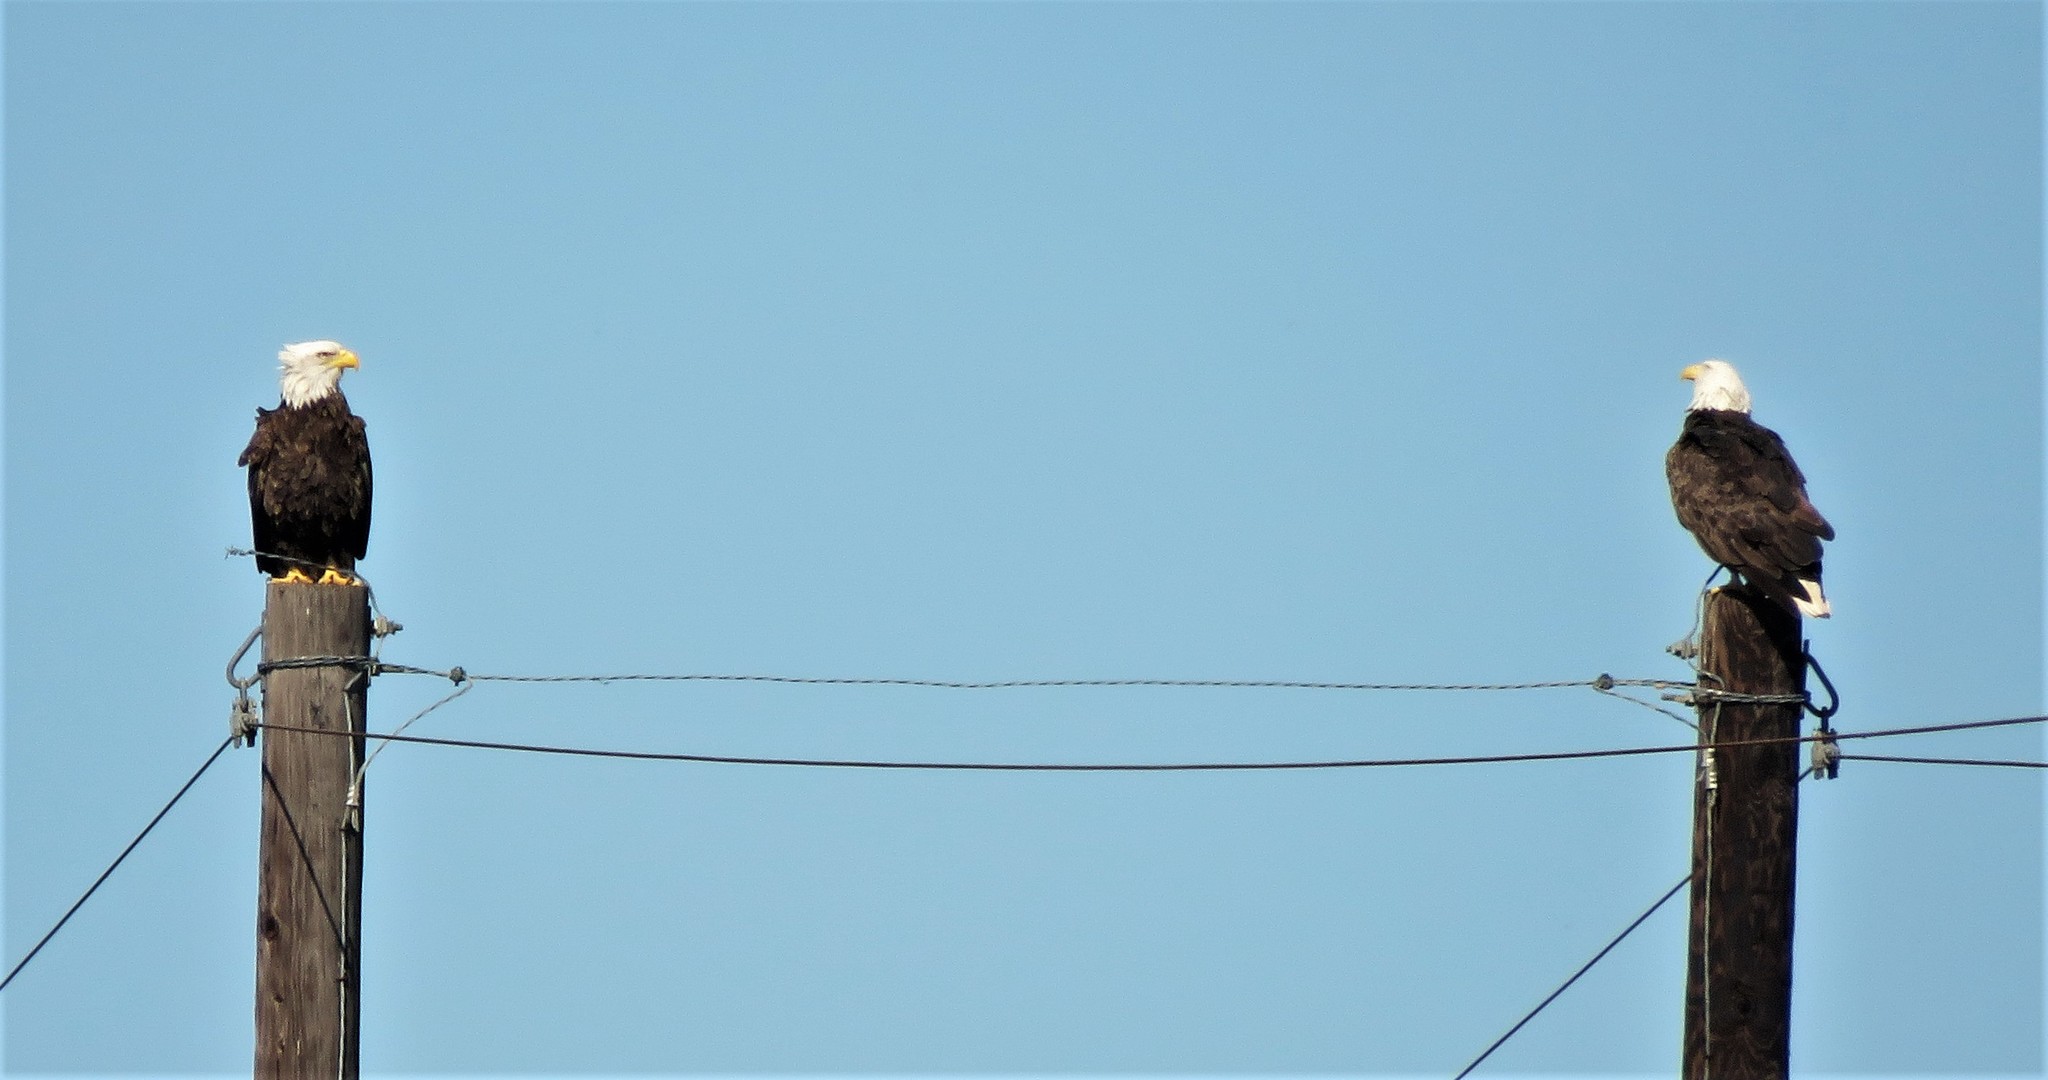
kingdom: Animalia
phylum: Chordata
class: Aves
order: Accipitriformes
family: Accipitridae
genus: Haliaeetus
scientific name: Haliaeetus leucocephalus
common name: Bald eagle
